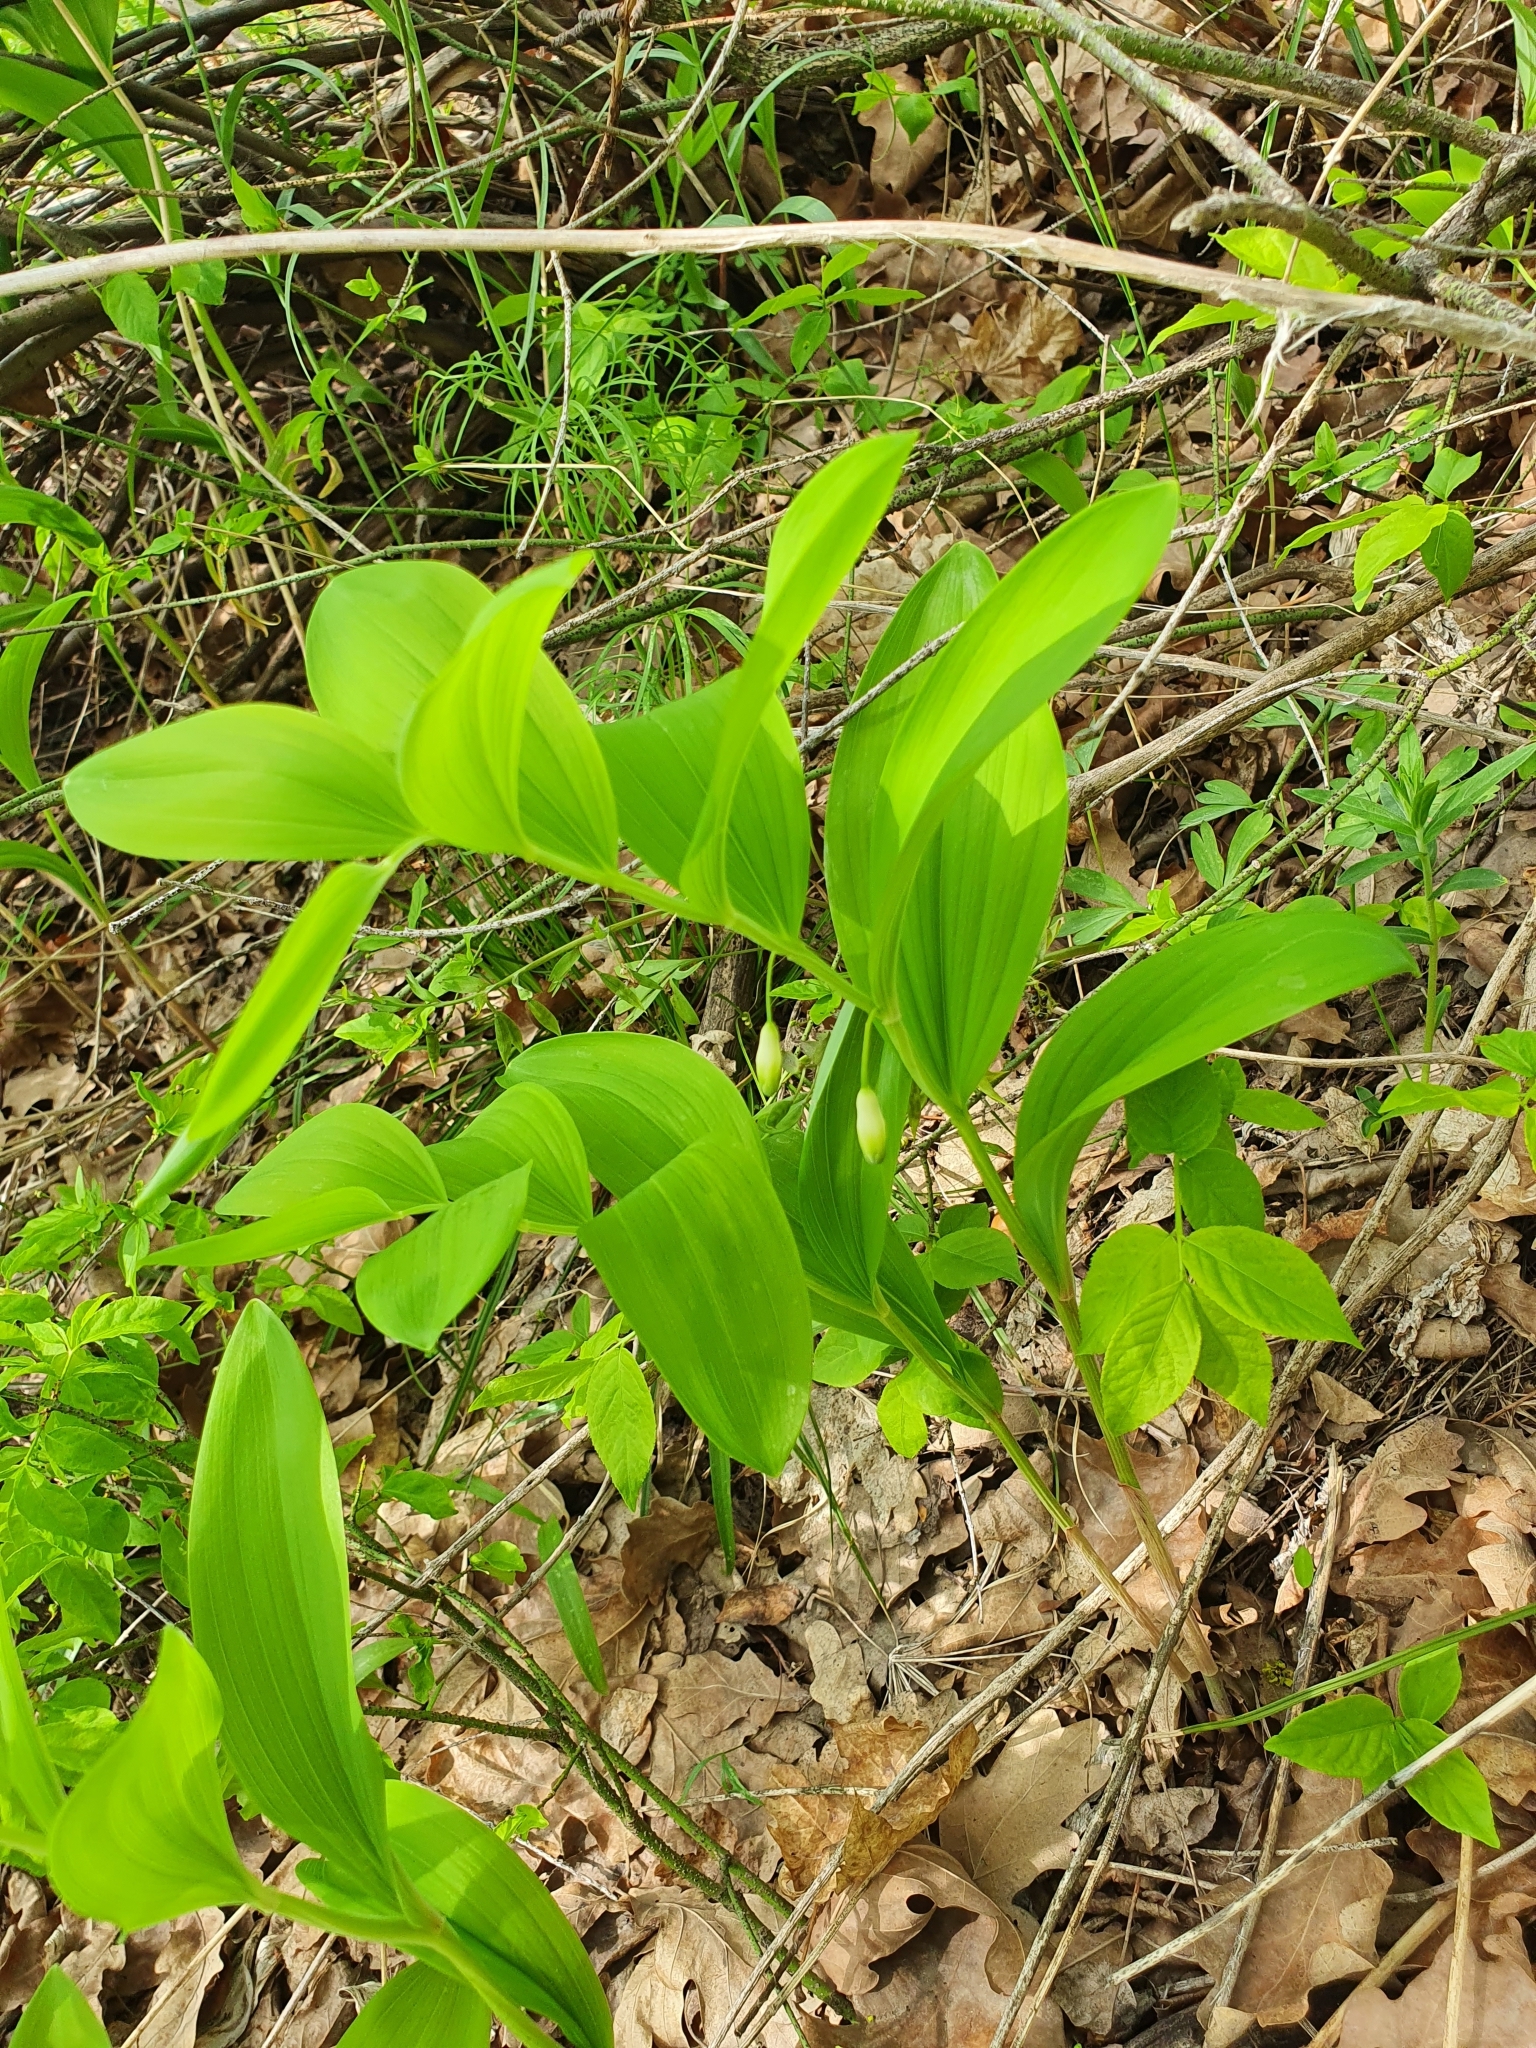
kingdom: Plantae
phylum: Tracheophyta
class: Liliopsida
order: Asparagales
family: Asparagaceae
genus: Polygonatum
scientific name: Polygonatum odoratum
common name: Angular solomon's-seal
